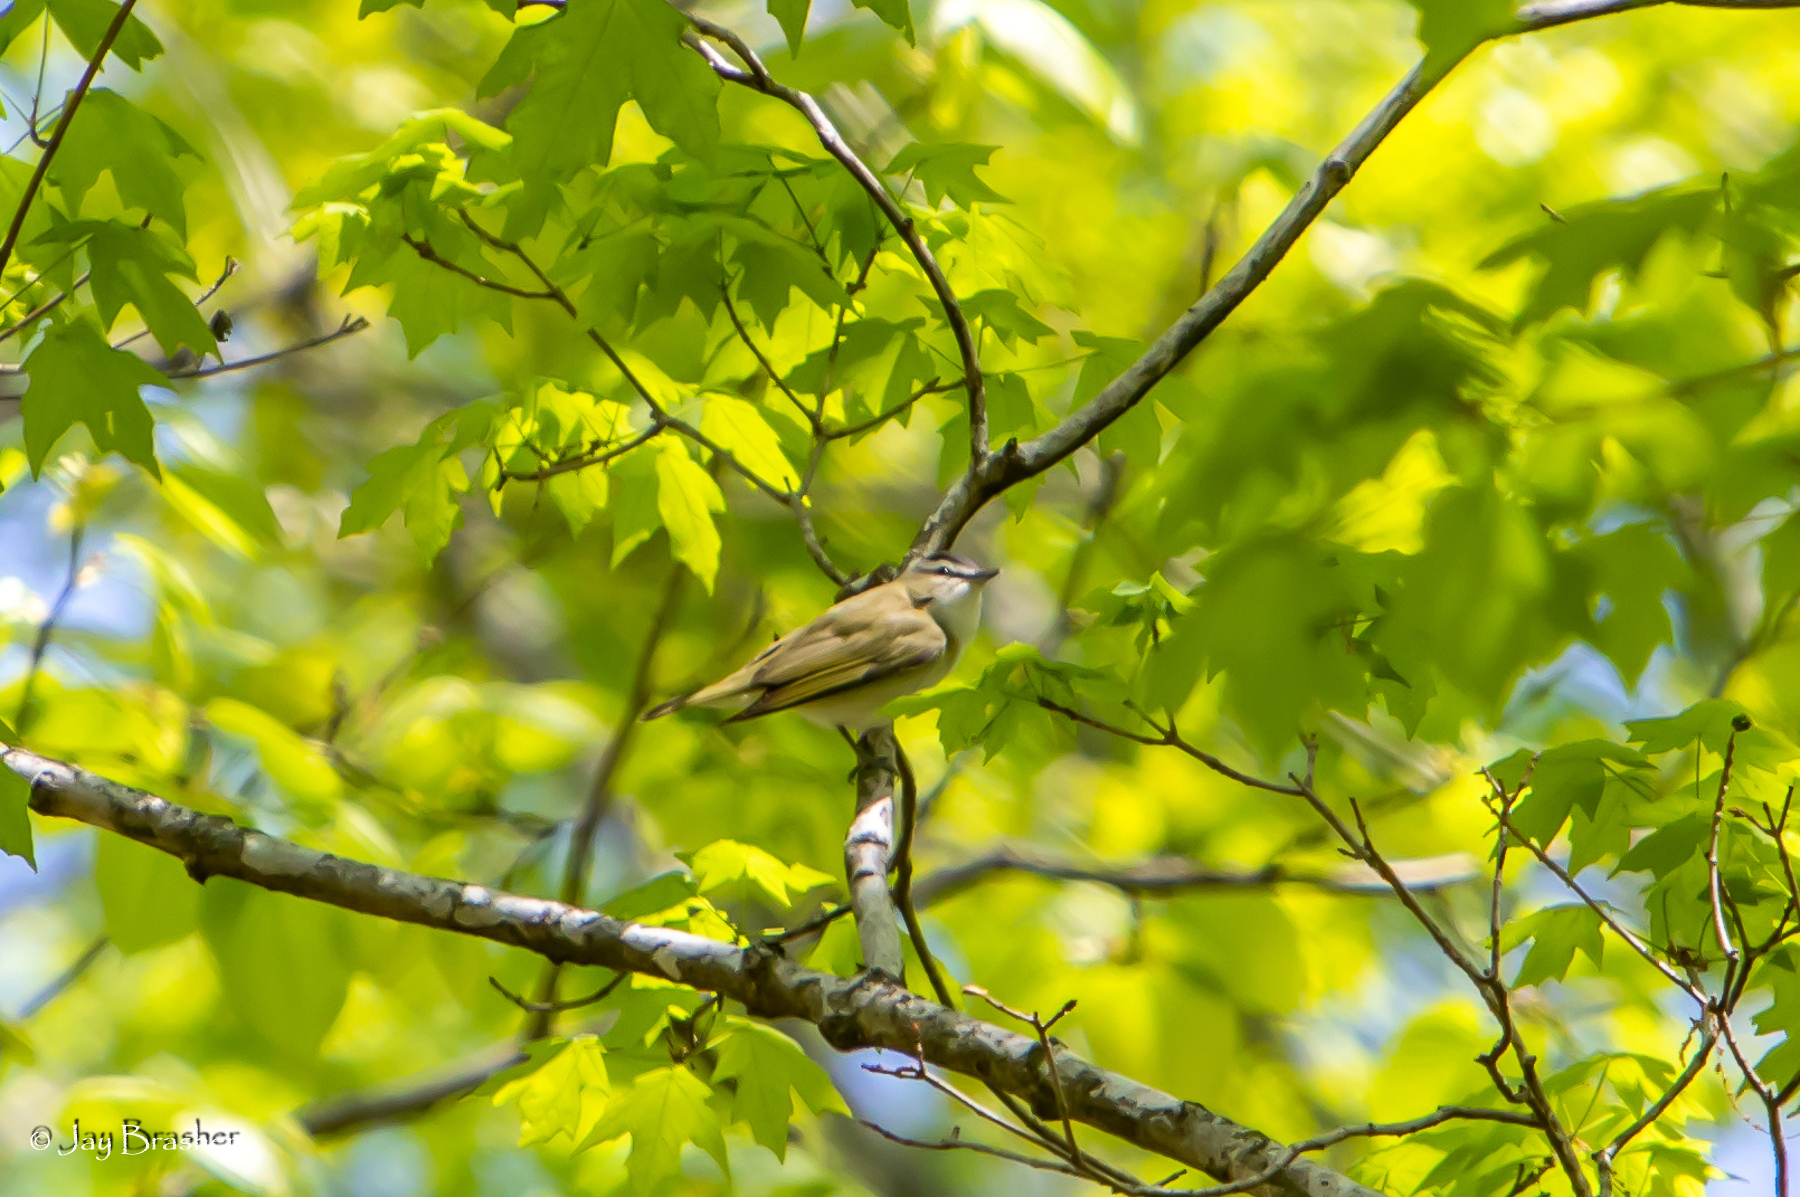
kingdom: Animalia
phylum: Chordata
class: Aves
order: Passeriformes
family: Vireonidae
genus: Vireo
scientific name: Vireo olivaceus
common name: Red-eyed vireo
